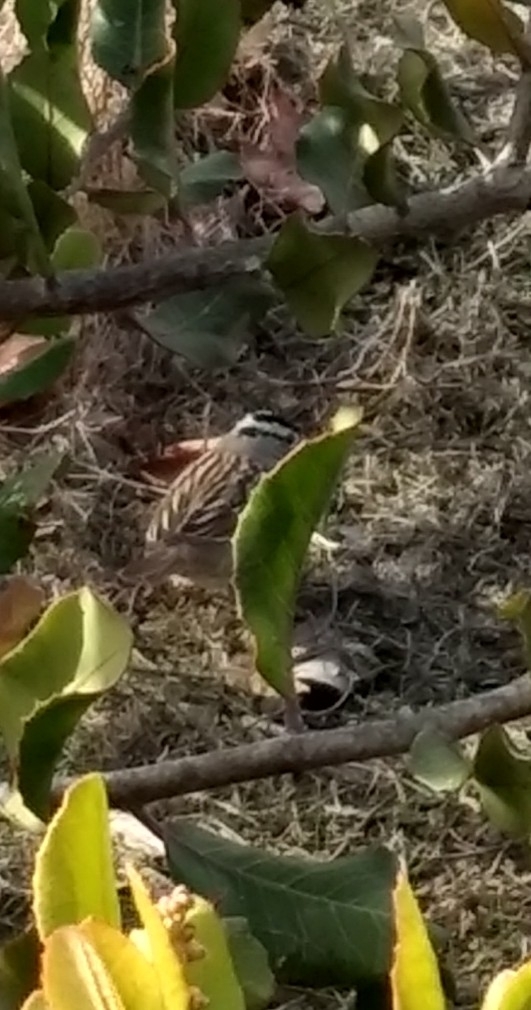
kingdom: Animalia
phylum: Chordata
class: Aves
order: Passeriformes
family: Passerellidae
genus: Zonotrichia
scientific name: Zonotrichia leucophrys
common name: White-crowned sparrow
